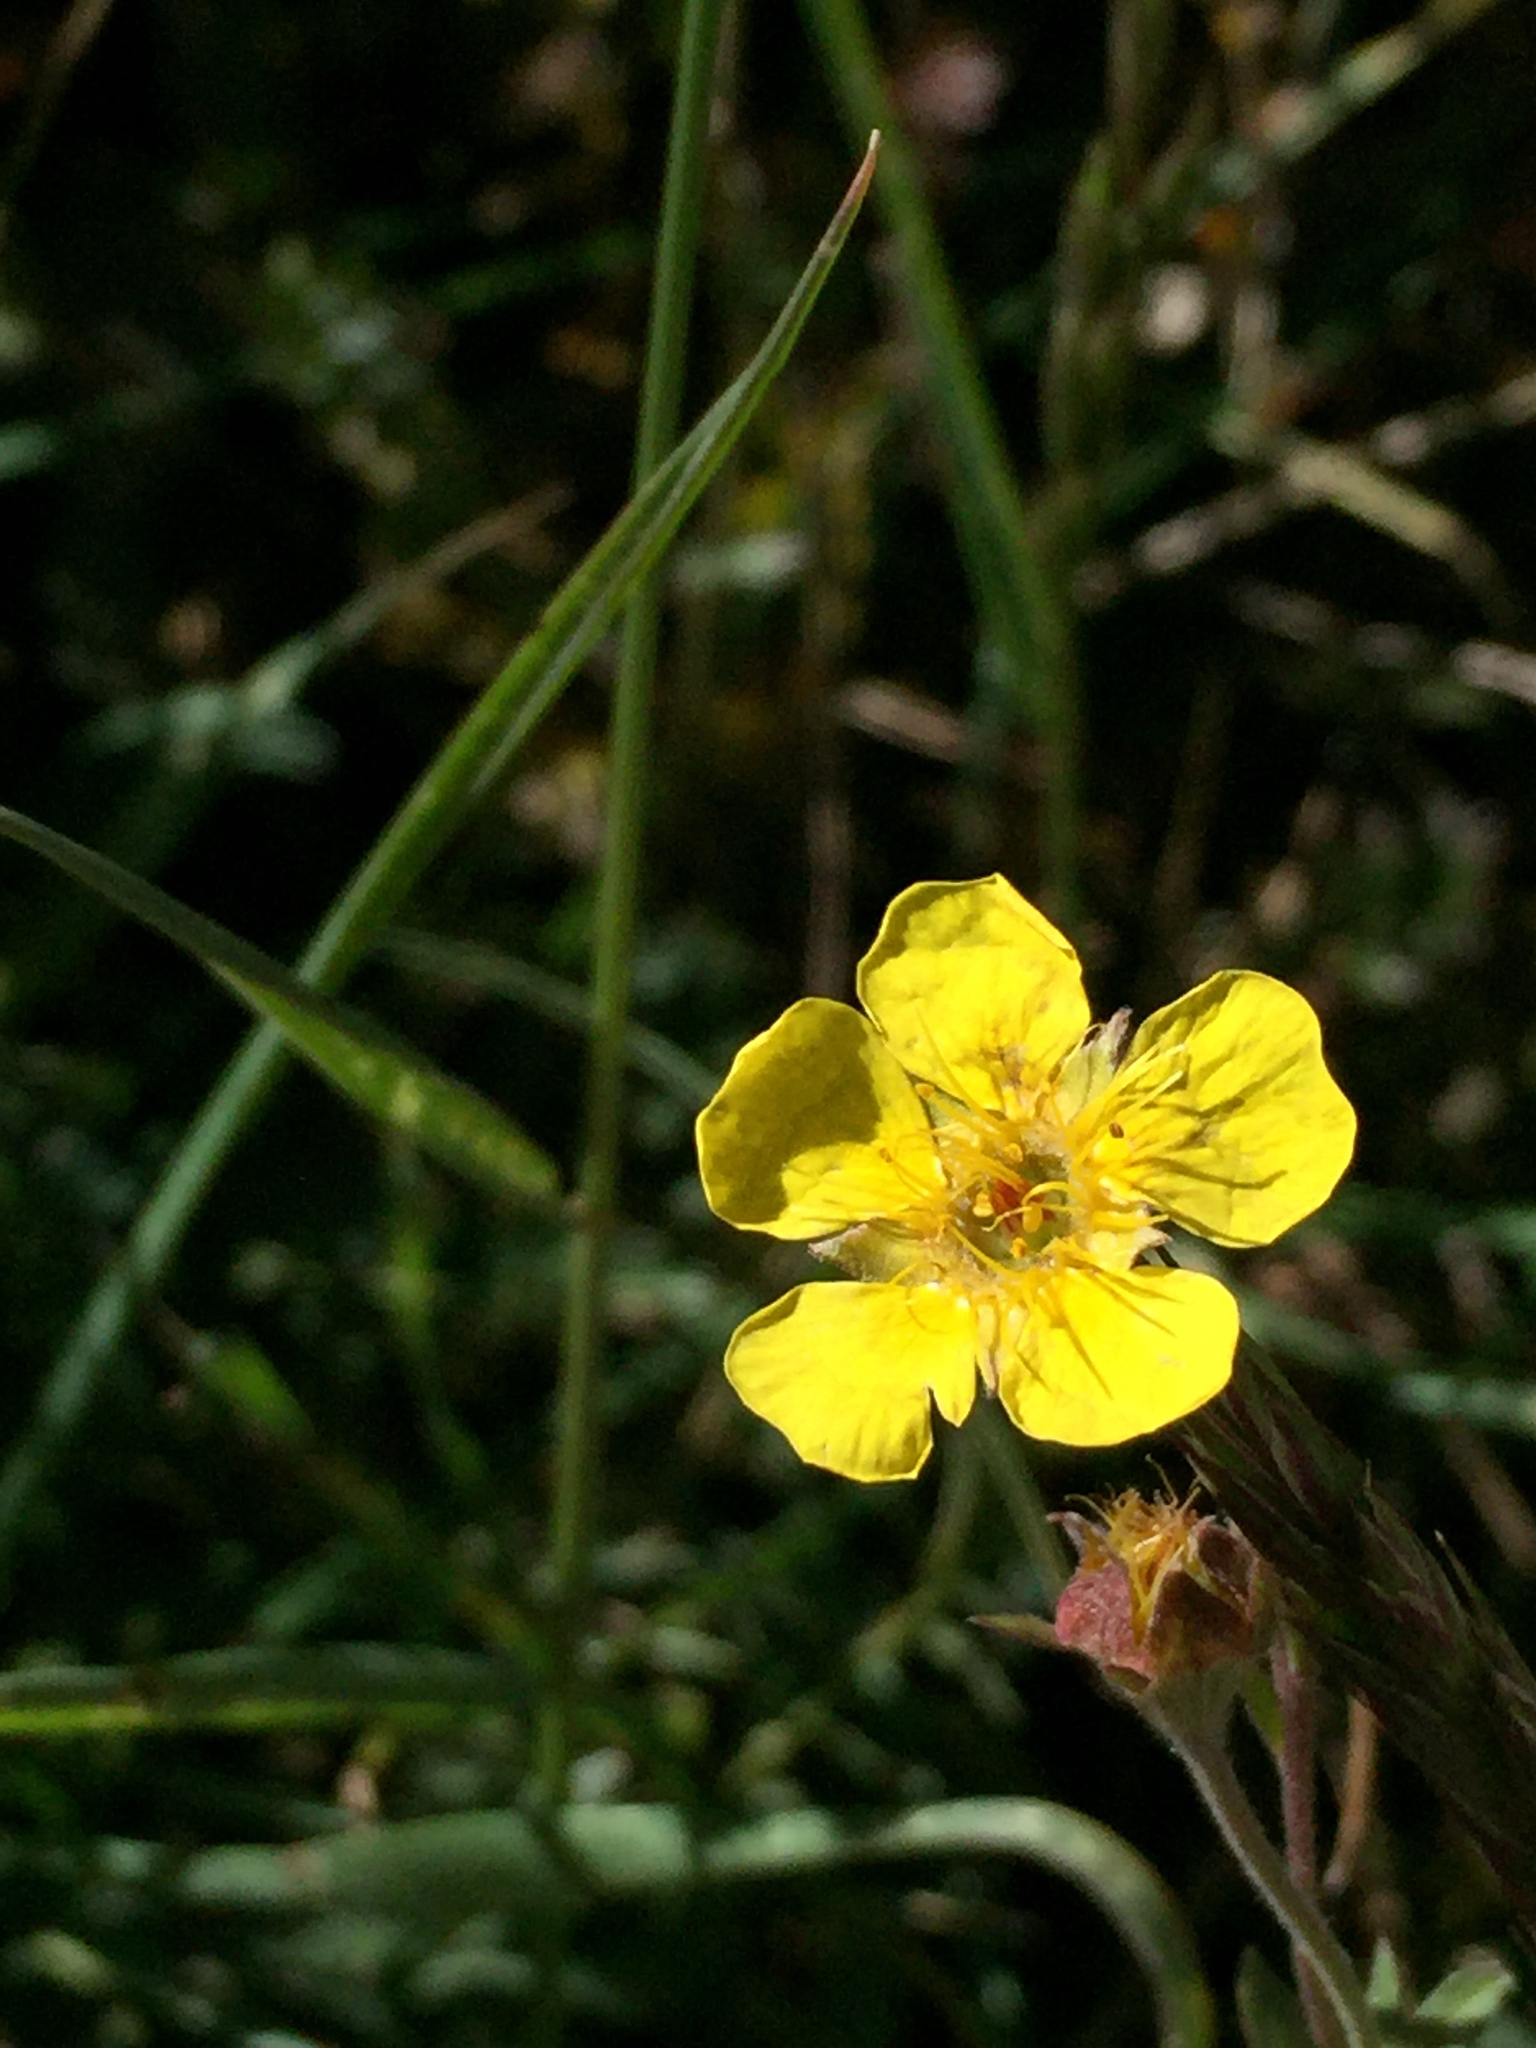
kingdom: Plantae
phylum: Tracheophyta
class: Magnoliopsida
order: Rosales
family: Rosaceae
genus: Geum
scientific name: Geum rossii
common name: Alpine avens
